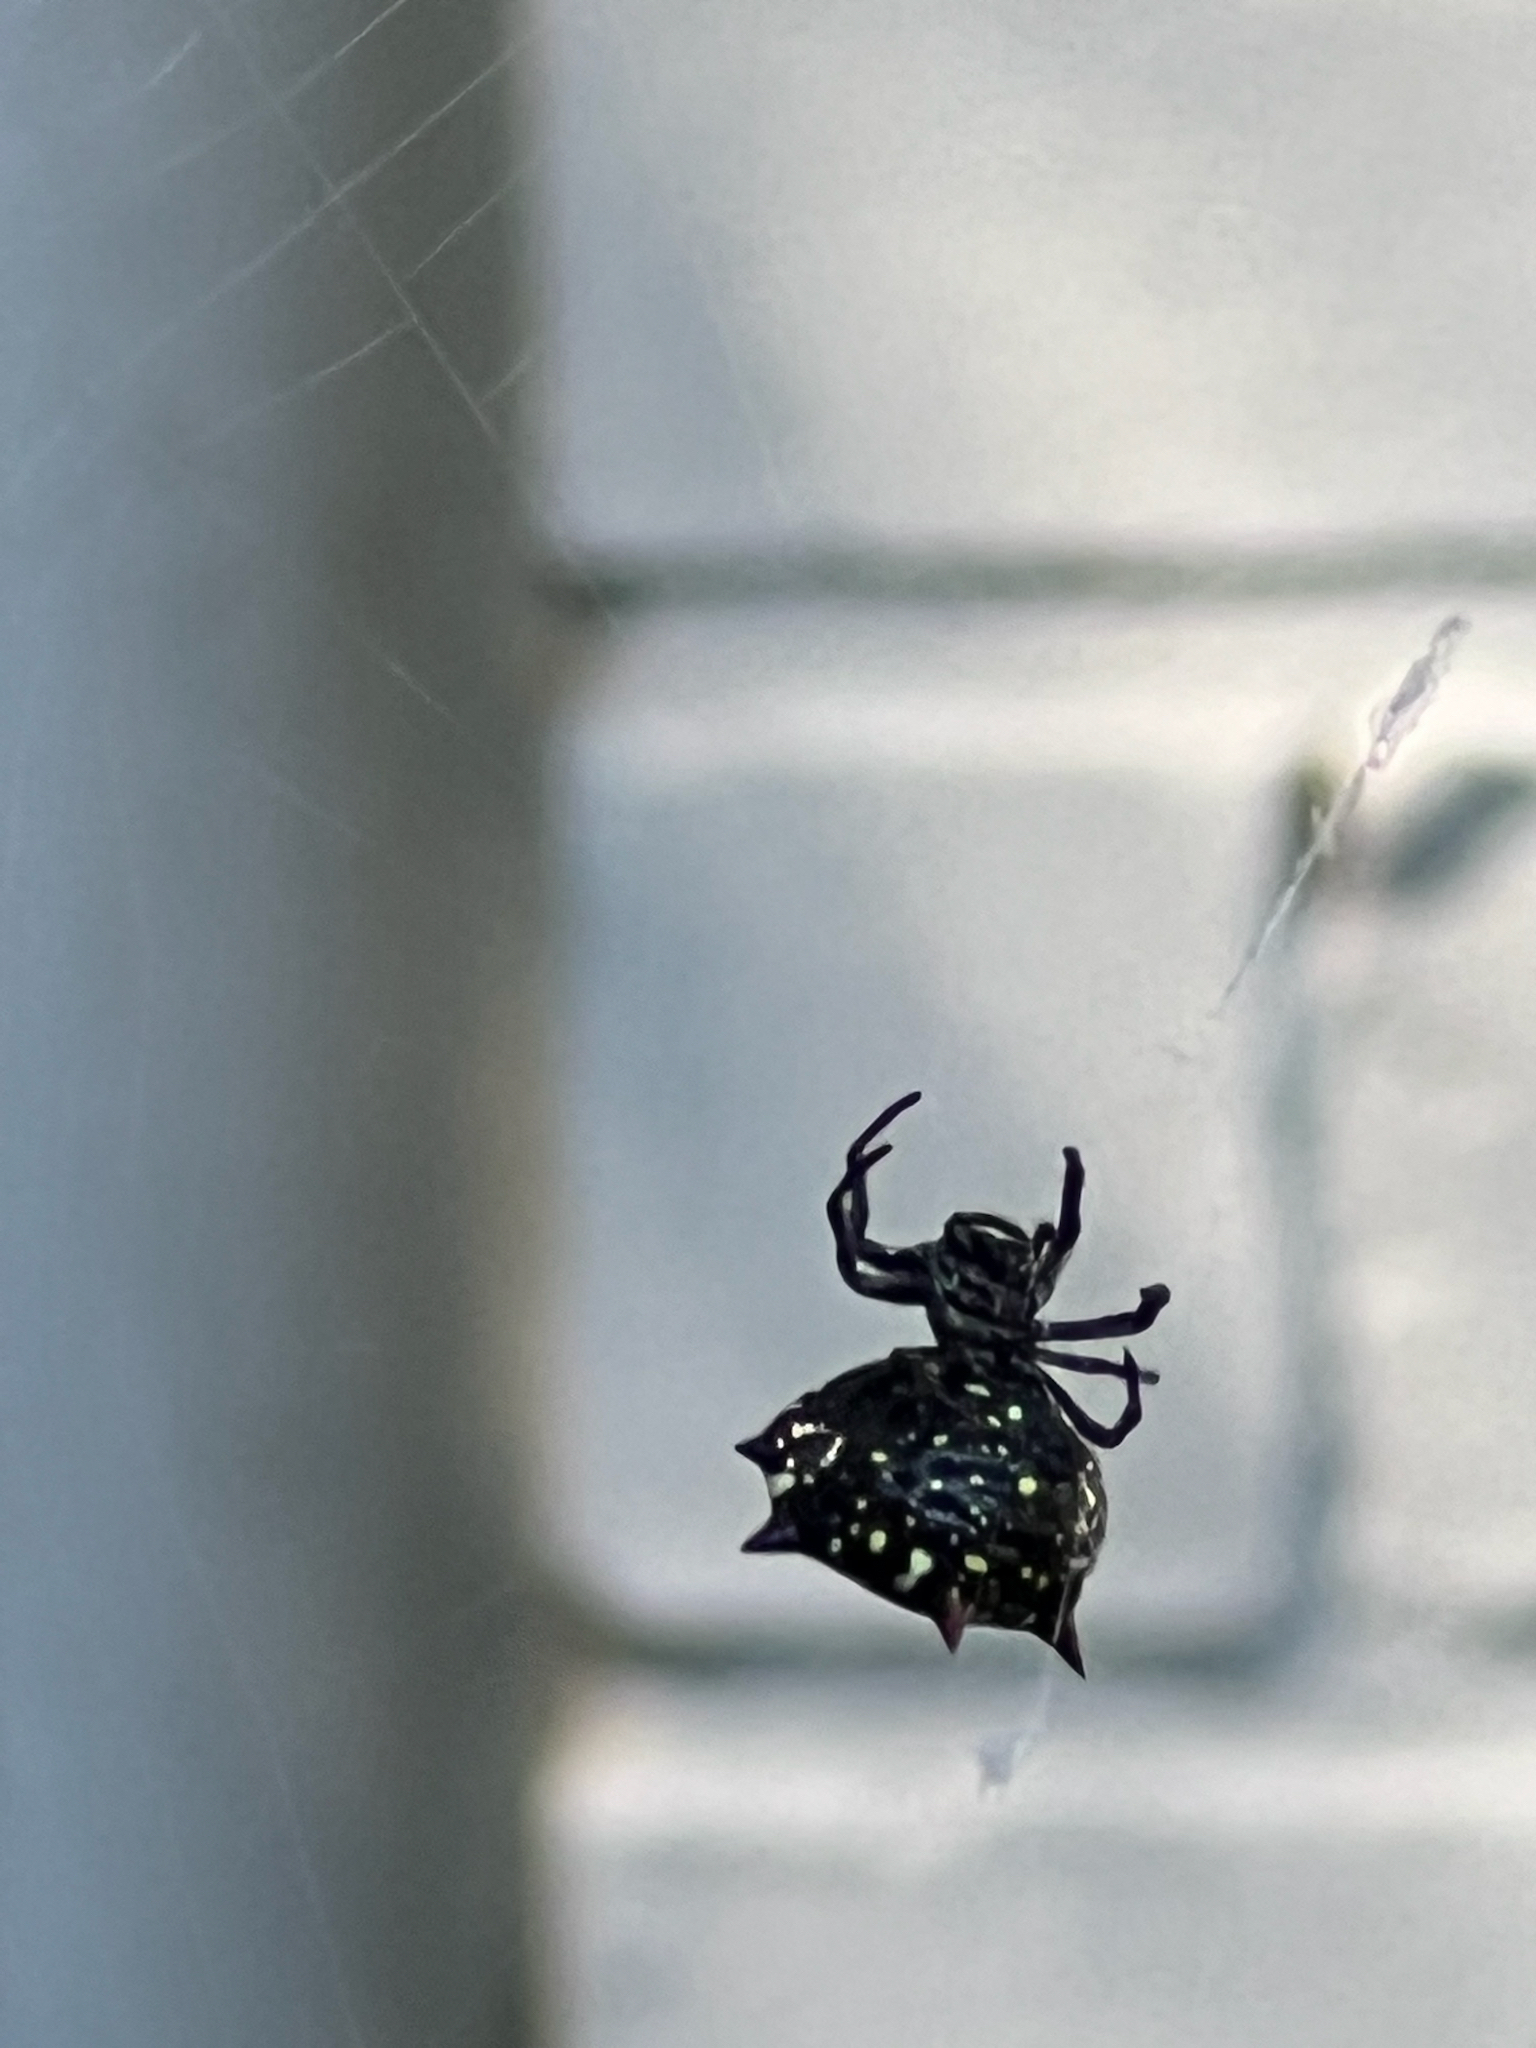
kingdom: Animalia
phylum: Arthropoda
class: Arachnida
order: Araneae
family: Araneidae
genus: Gasteracantha
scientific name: Gasteracantha cancriformis
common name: Orb weavers
